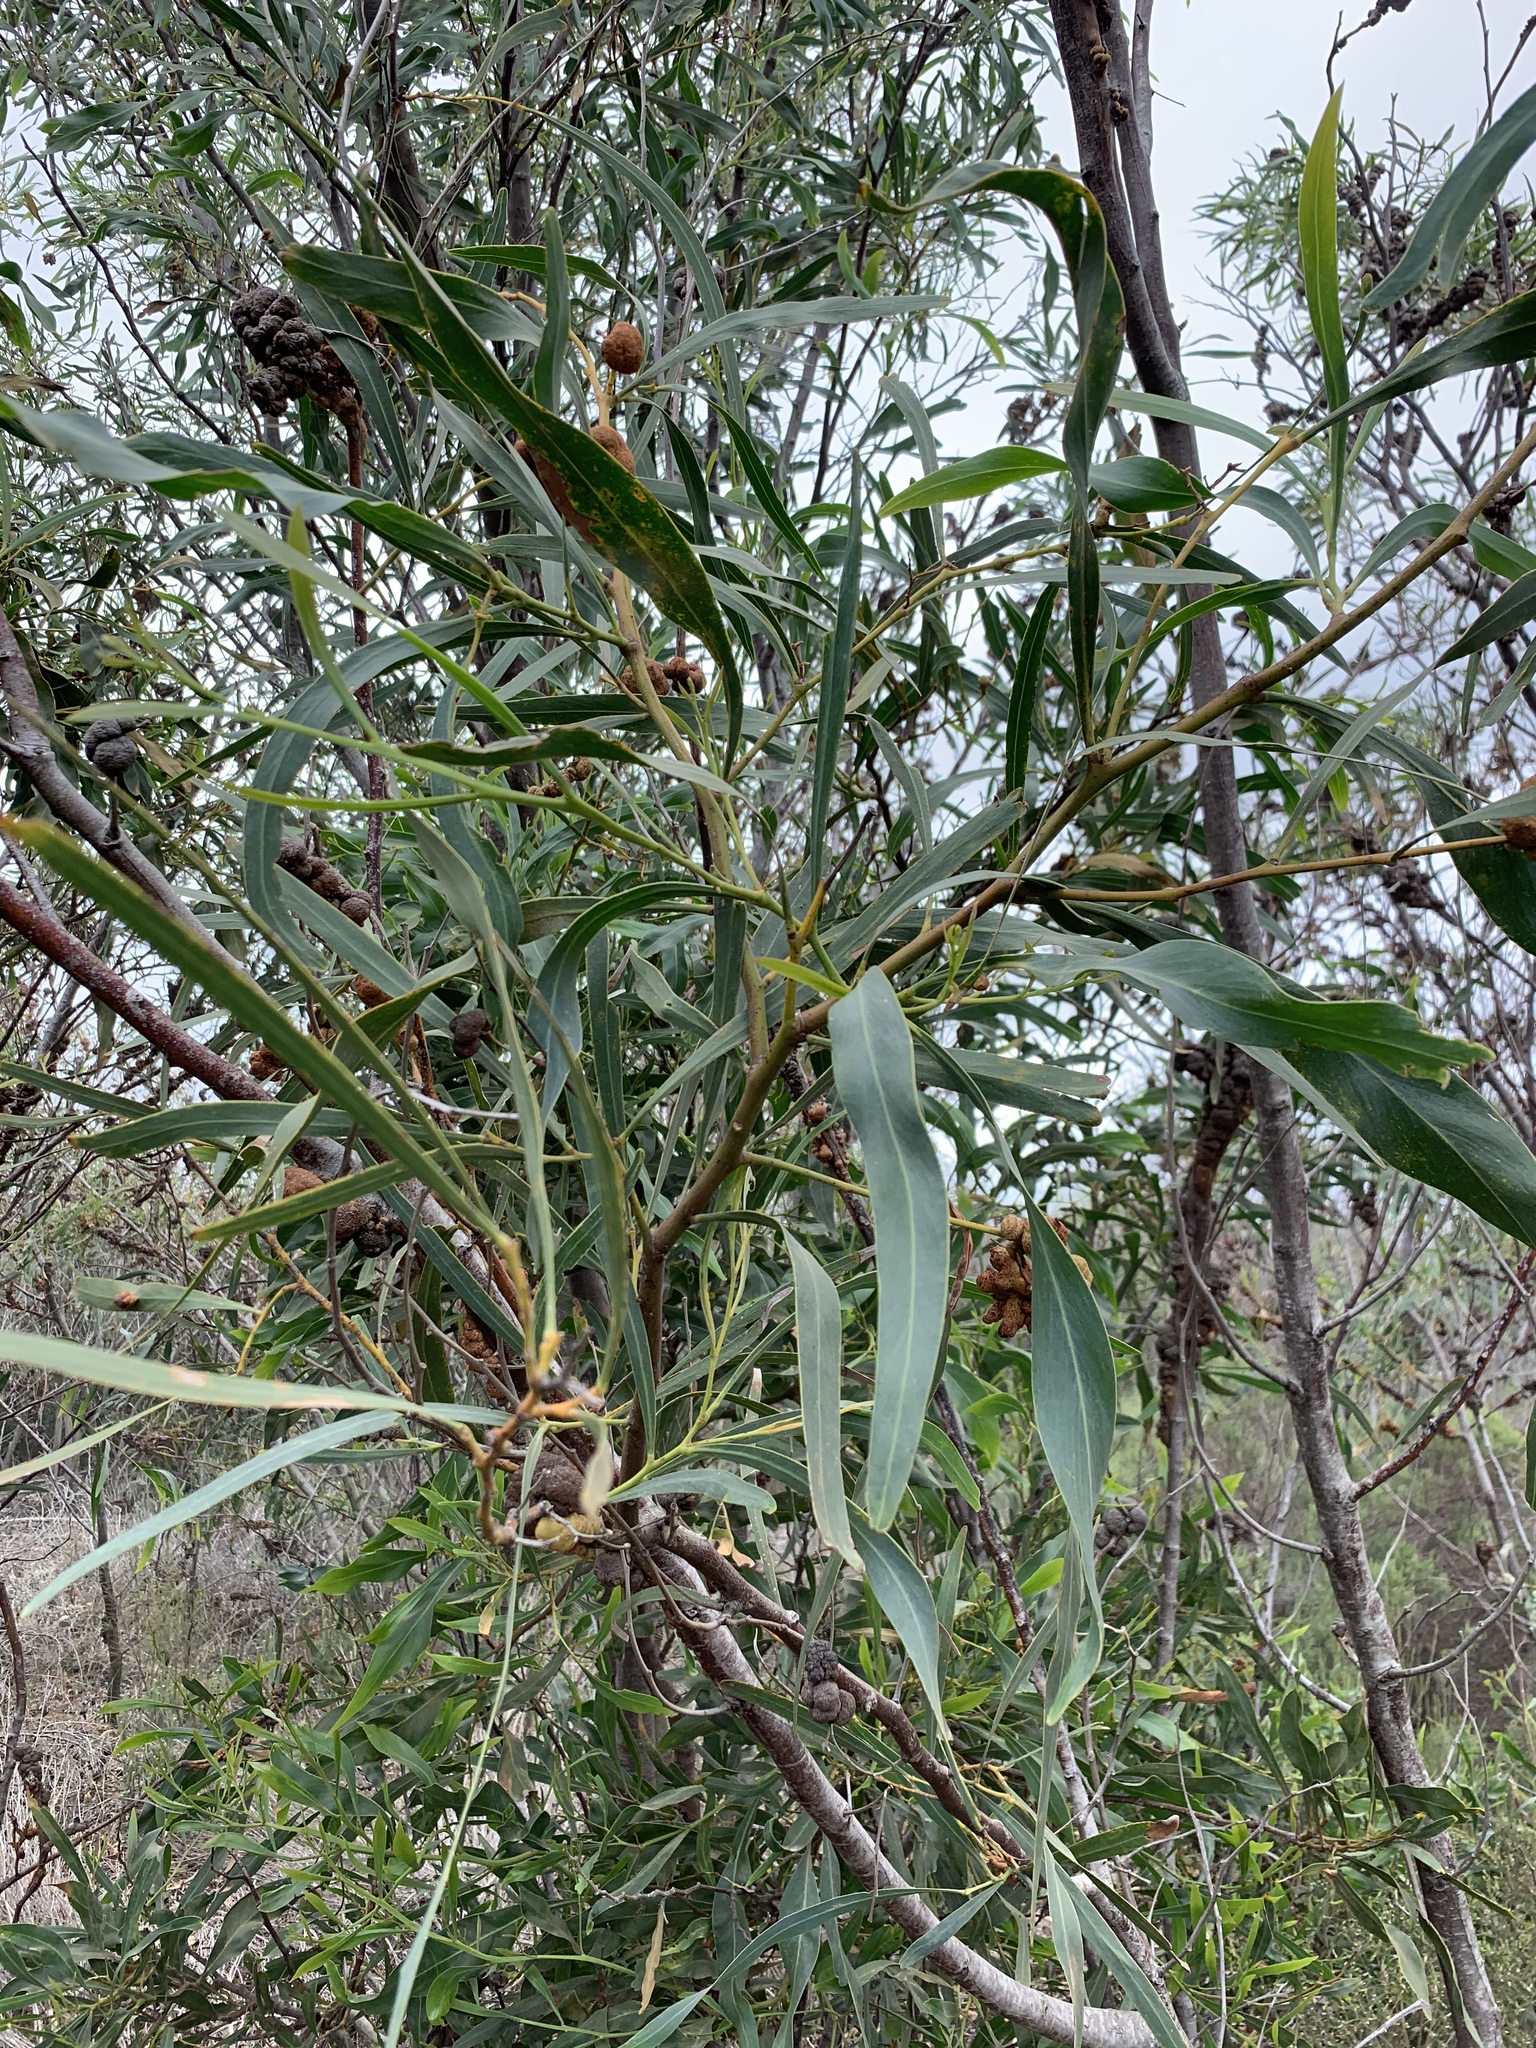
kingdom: Plantae
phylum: Tracheophyta
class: Magnoliopsida
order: Fabales
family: Fabaceae
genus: Acacia
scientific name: Acacia saligna
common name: Orange wattle
